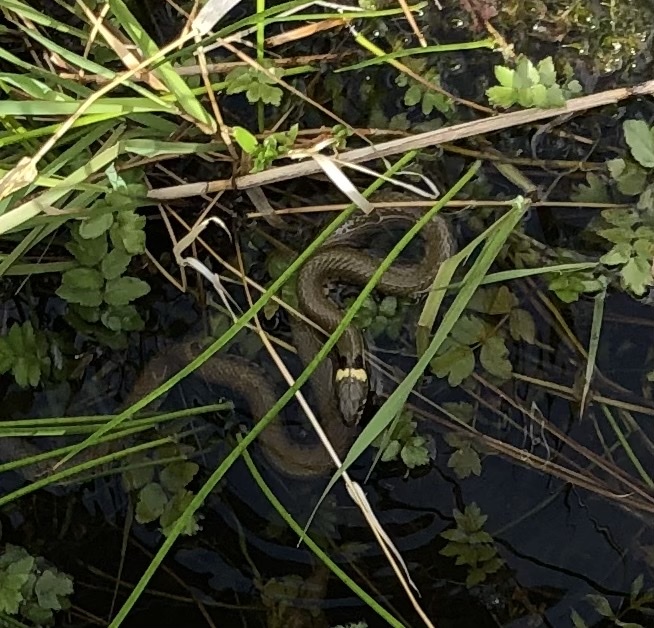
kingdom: Animalia
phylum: Chordata
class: Squamata
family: Colubridae
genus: Natrix
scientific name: Natrix helvetica
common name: Banded grass snake
